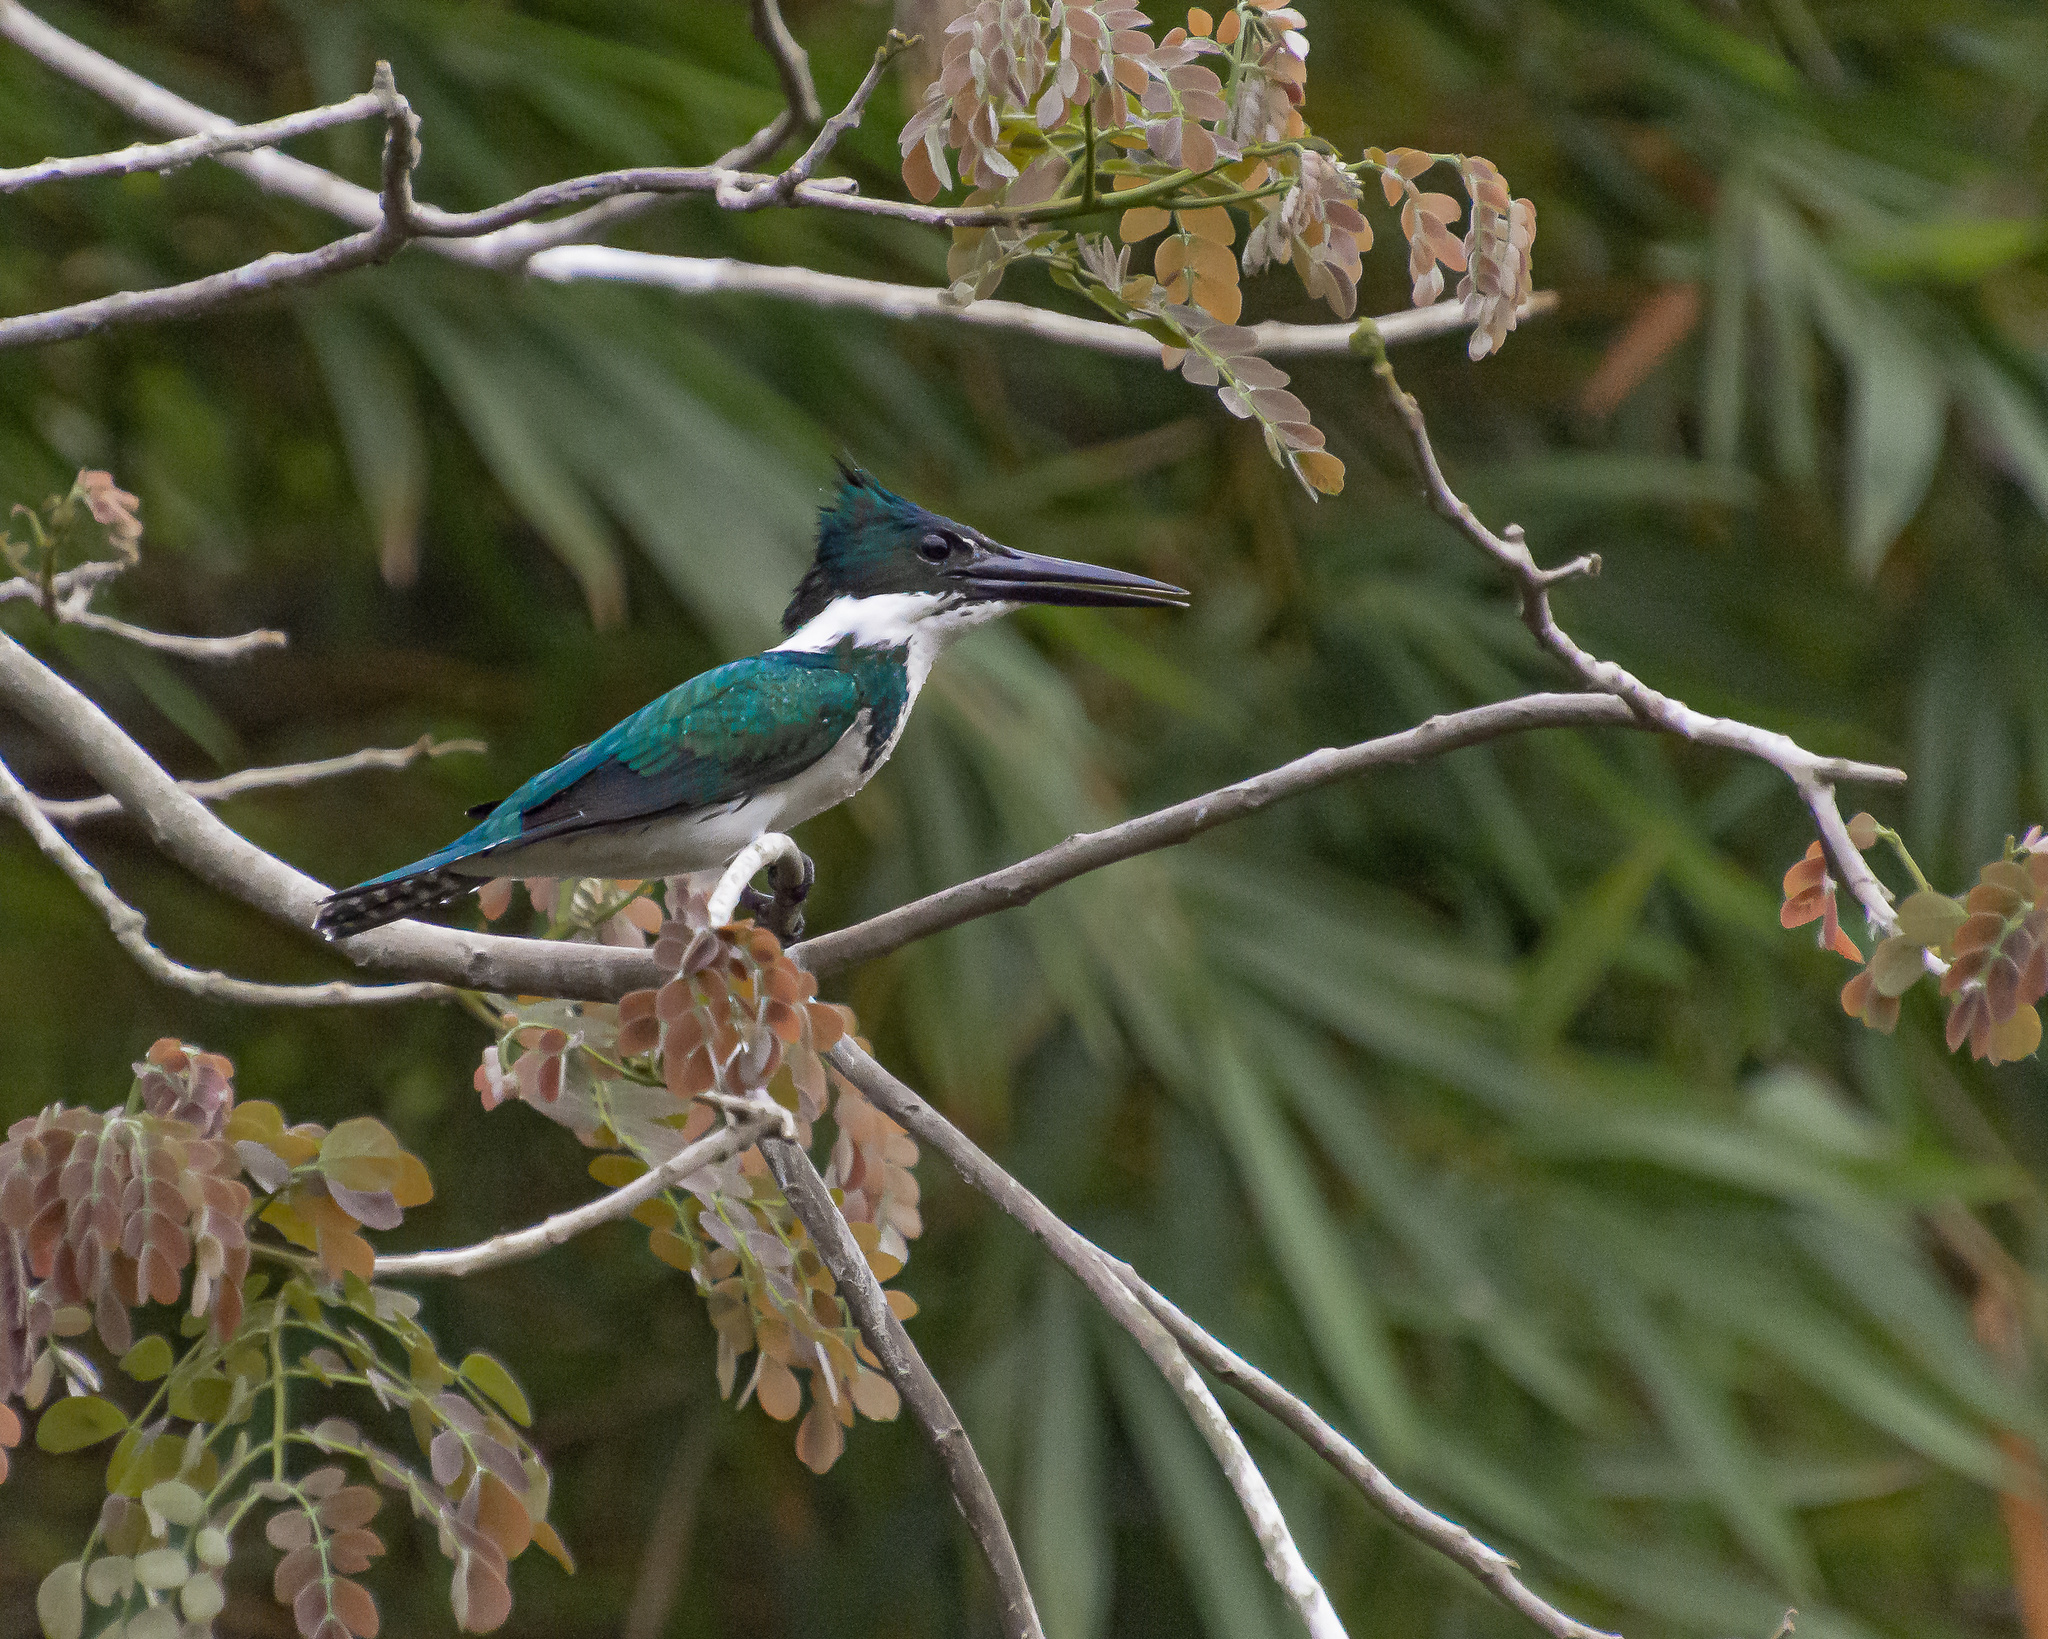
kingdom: Animalia
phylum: Chordata
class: Aves
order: Coraciiformes
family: Alcedinidae
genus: Chloroceryle
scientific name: Chloroceryle amazona
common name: Amazon kingfisher
